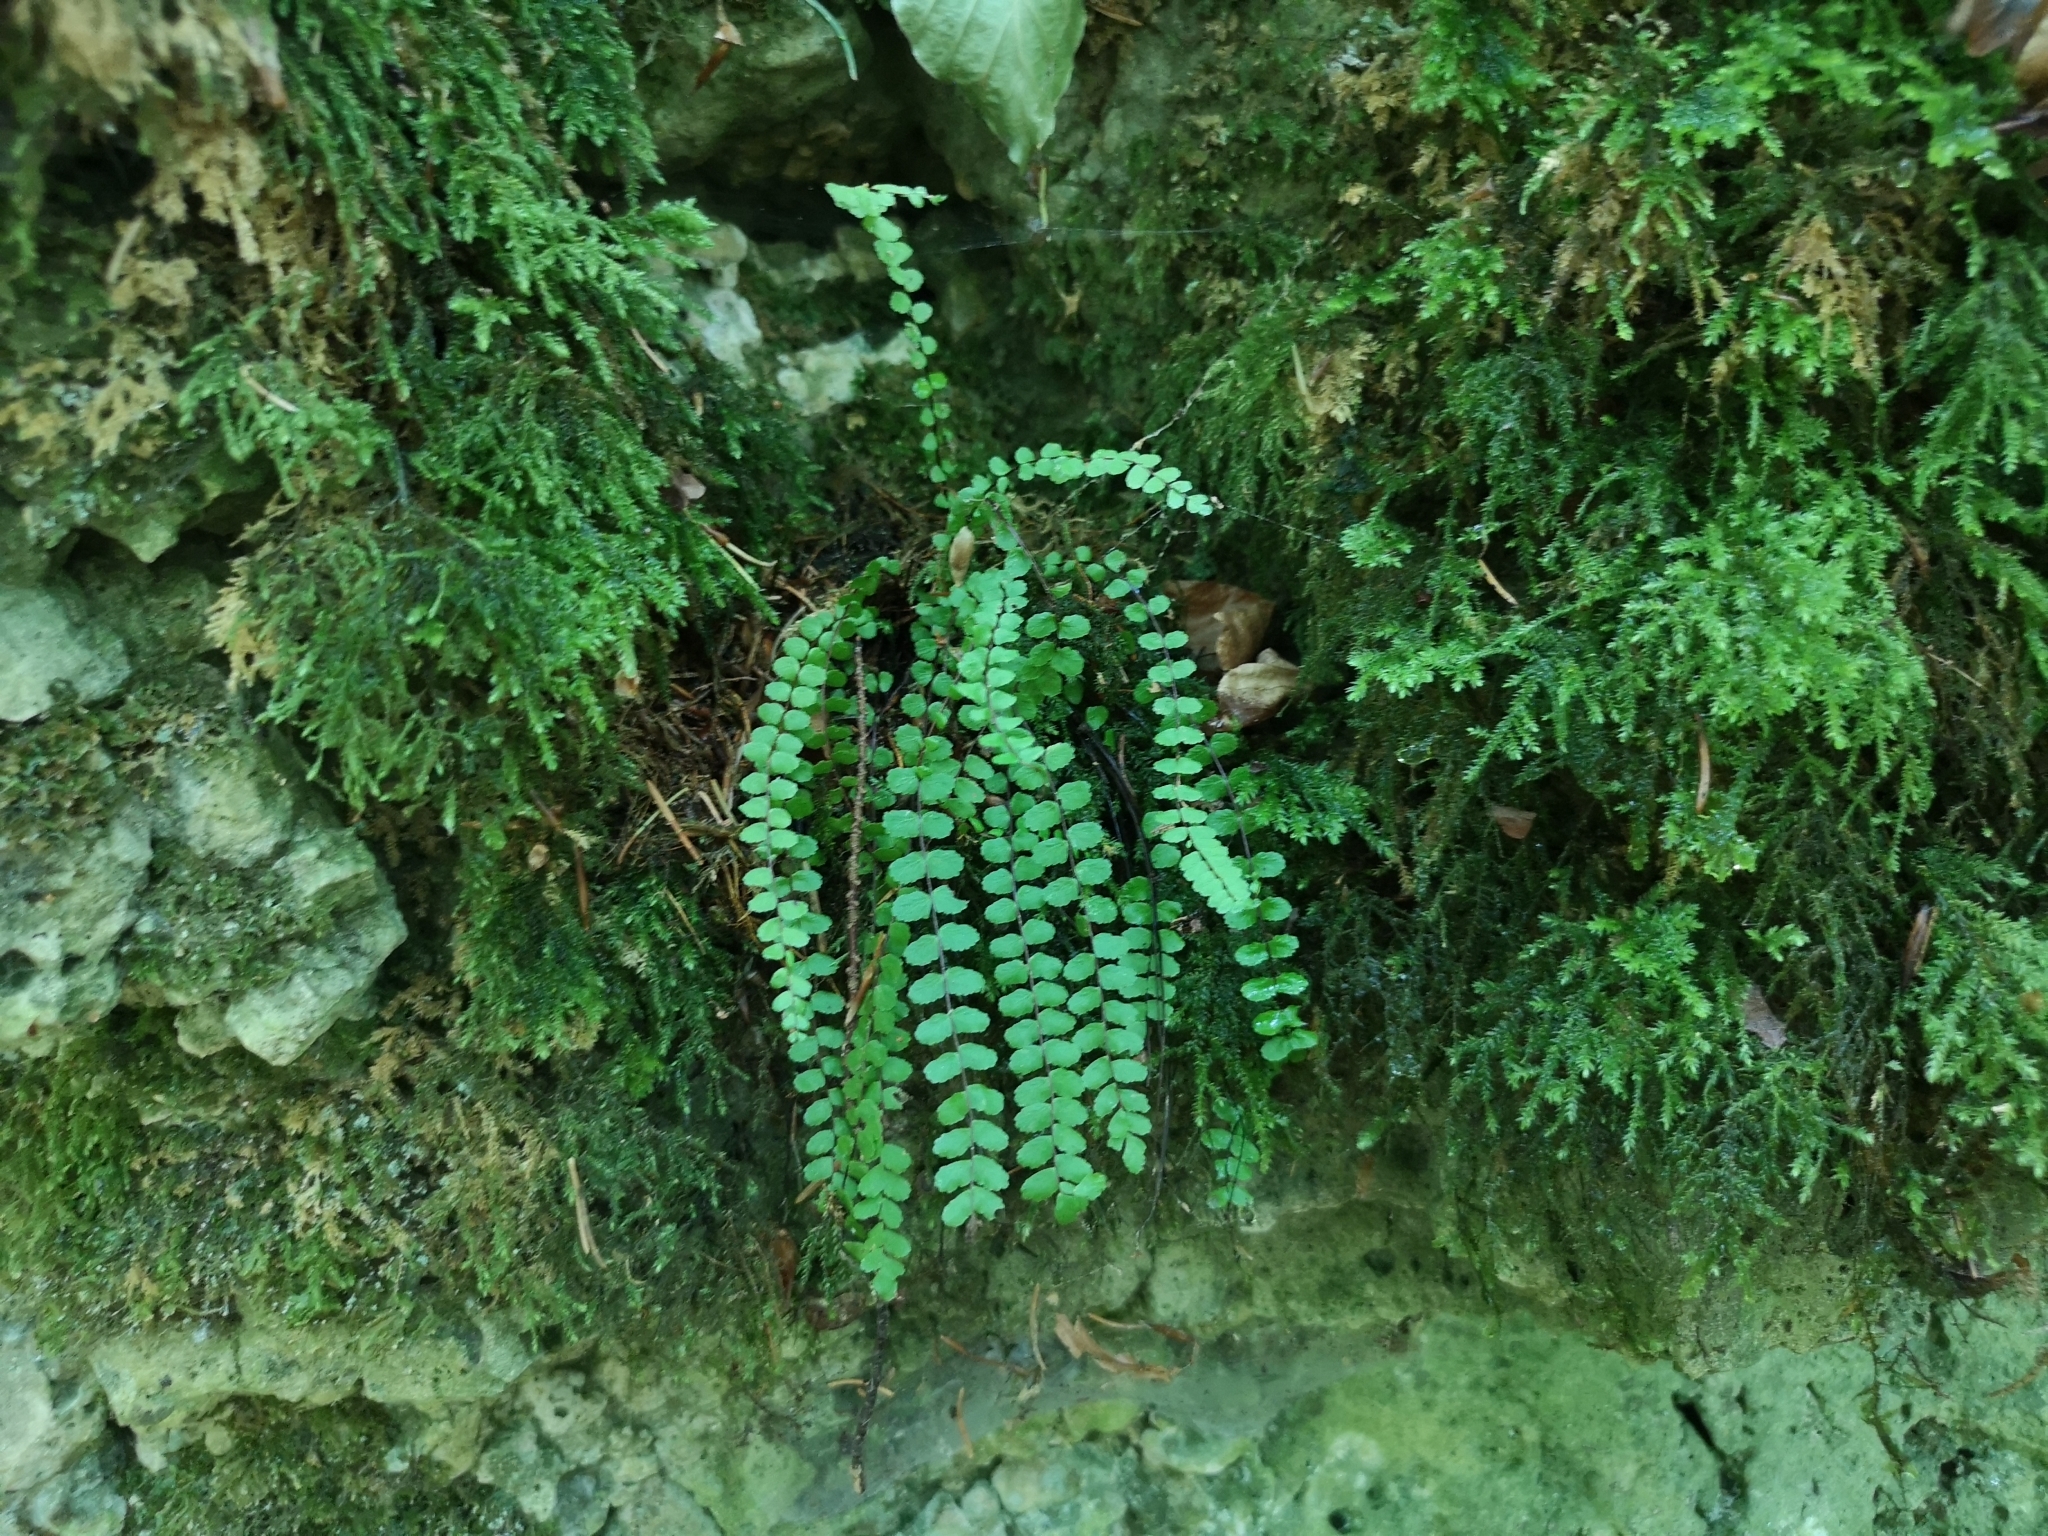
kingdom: Plantae
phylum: Tracheophyta
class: Polypodiopsida
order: Polypodiales
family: Aspleniaceae
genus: Asplenium
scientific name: Asplenium trichomanes
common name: Maidenhair spleenwort
